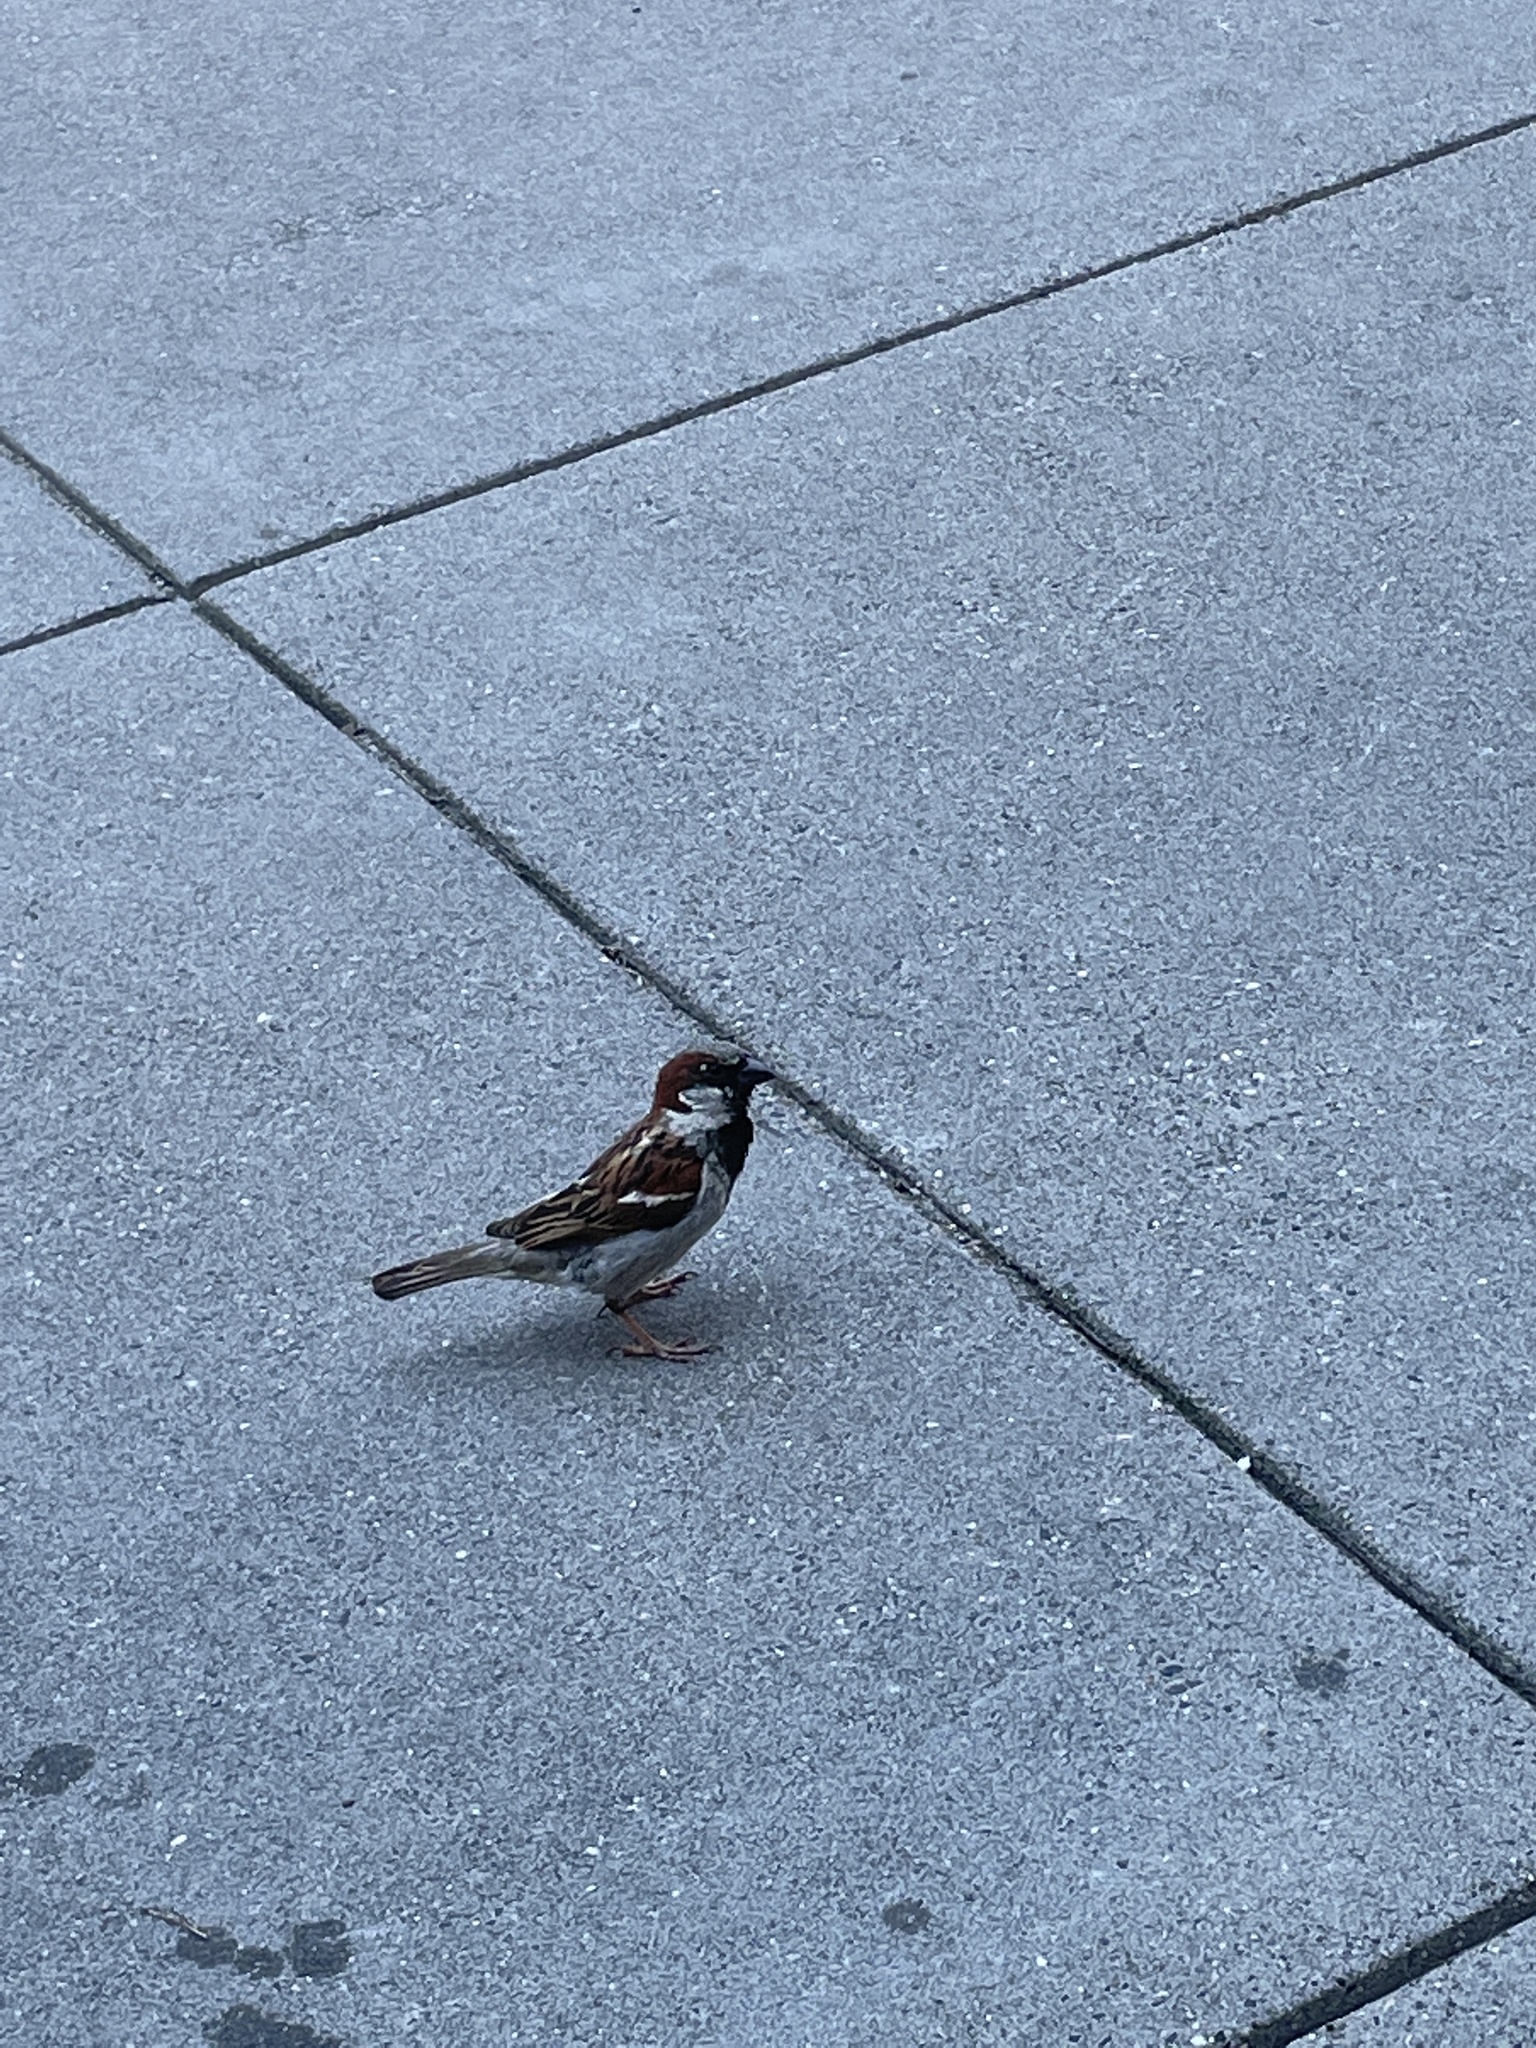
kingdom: Animalia
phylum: Chordata
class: Aves
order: Passeriformes
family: Passeridae
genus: Passer
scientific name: Passer domesticus
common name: House sparrow
